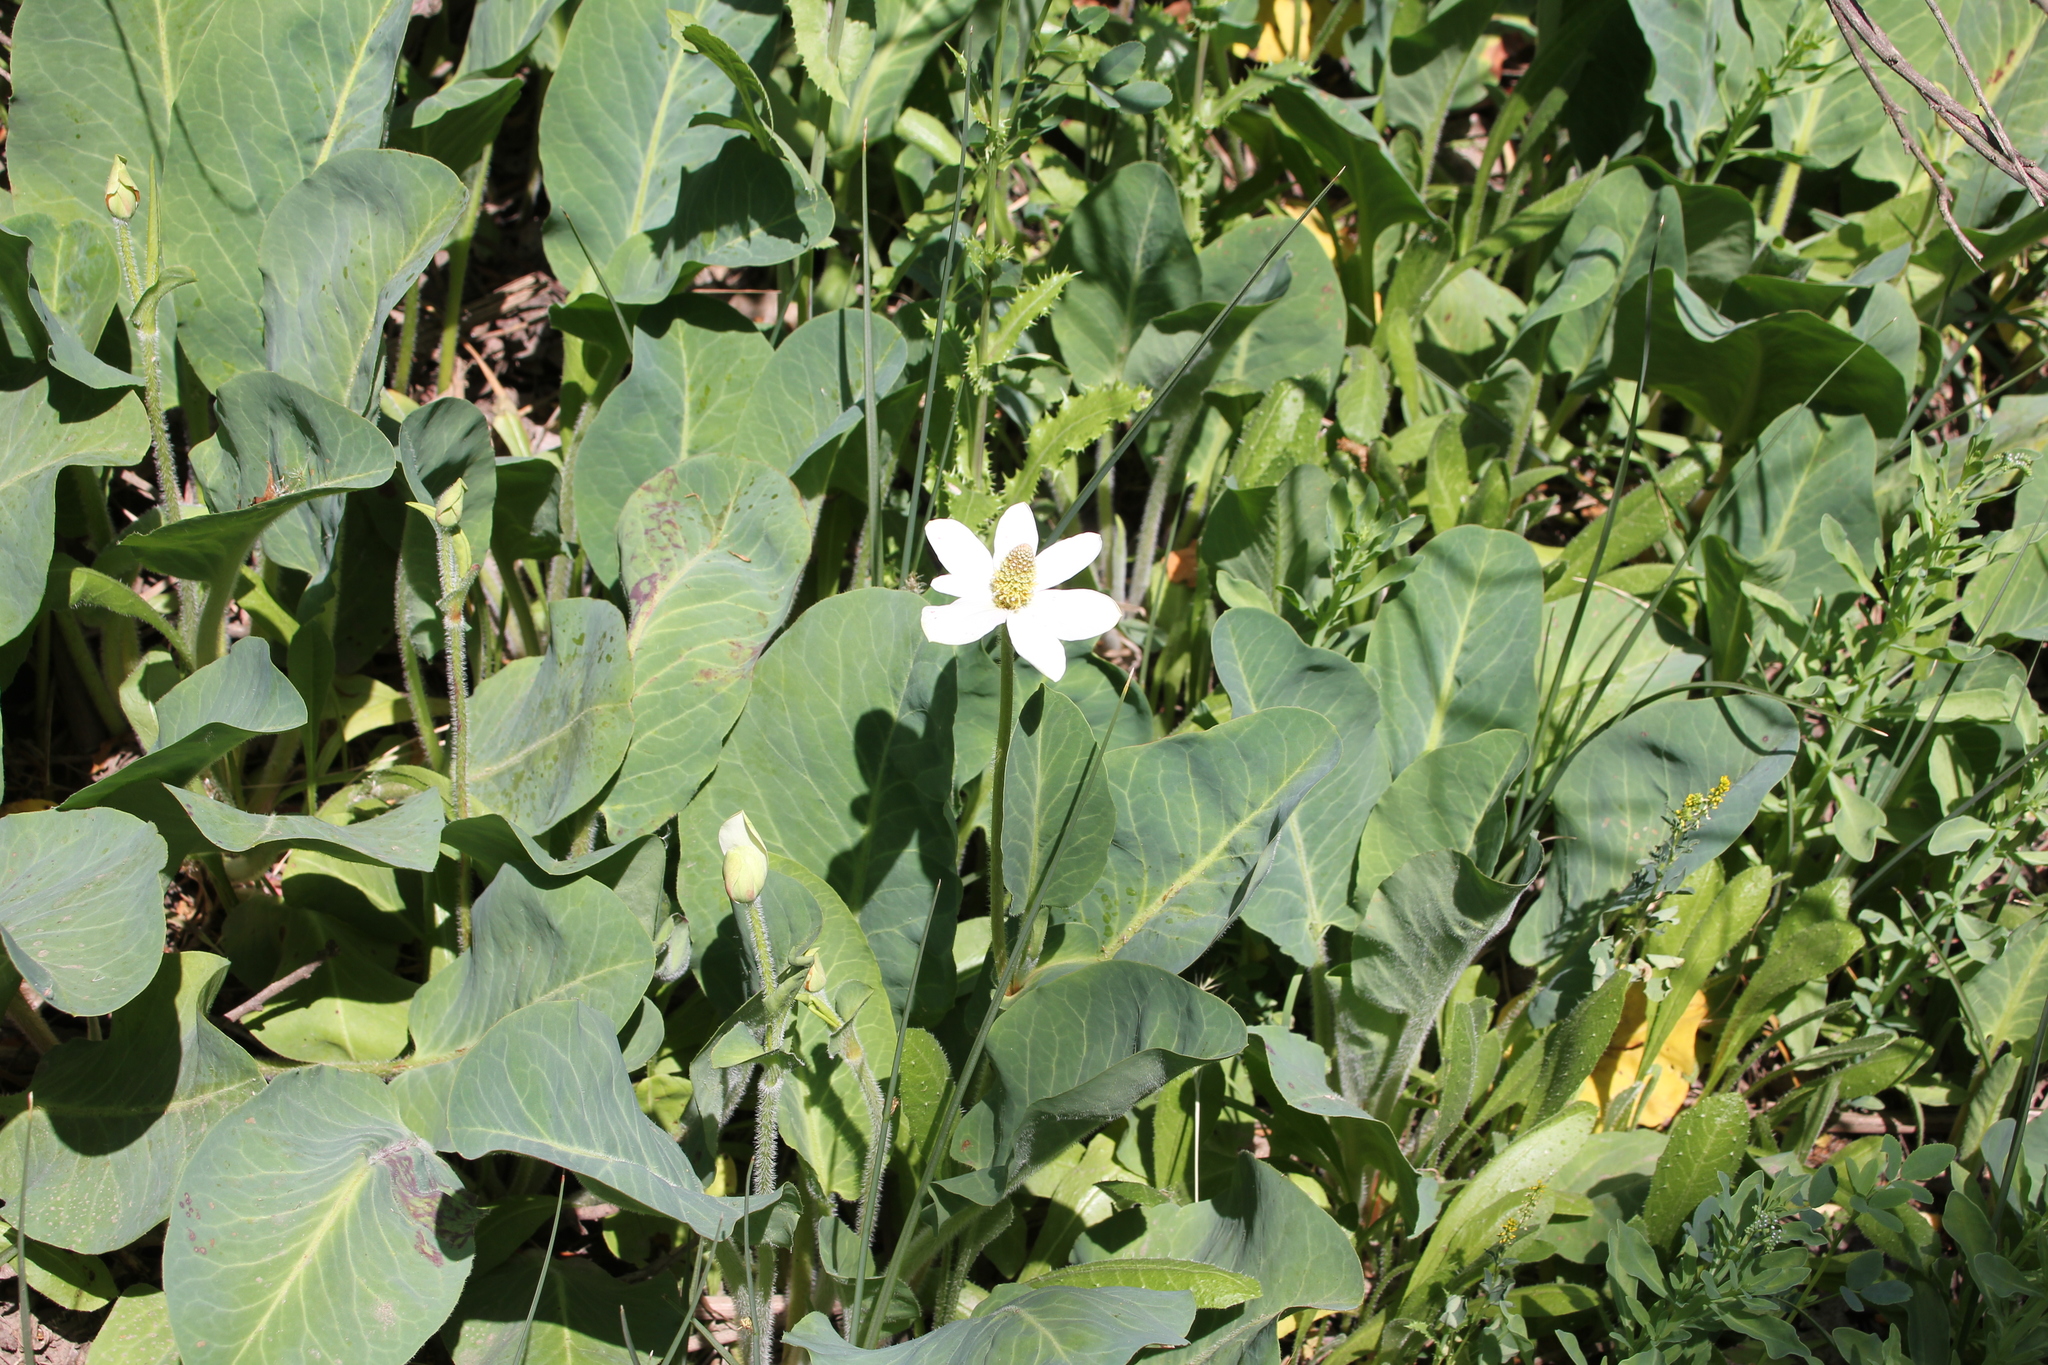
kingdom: Plantae
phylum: Tracheophyta
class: Magnoliopsida
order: Piperales
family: Saururaceae
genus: Anemopsis
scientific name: Anemopsis californica
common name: Apache-beads
